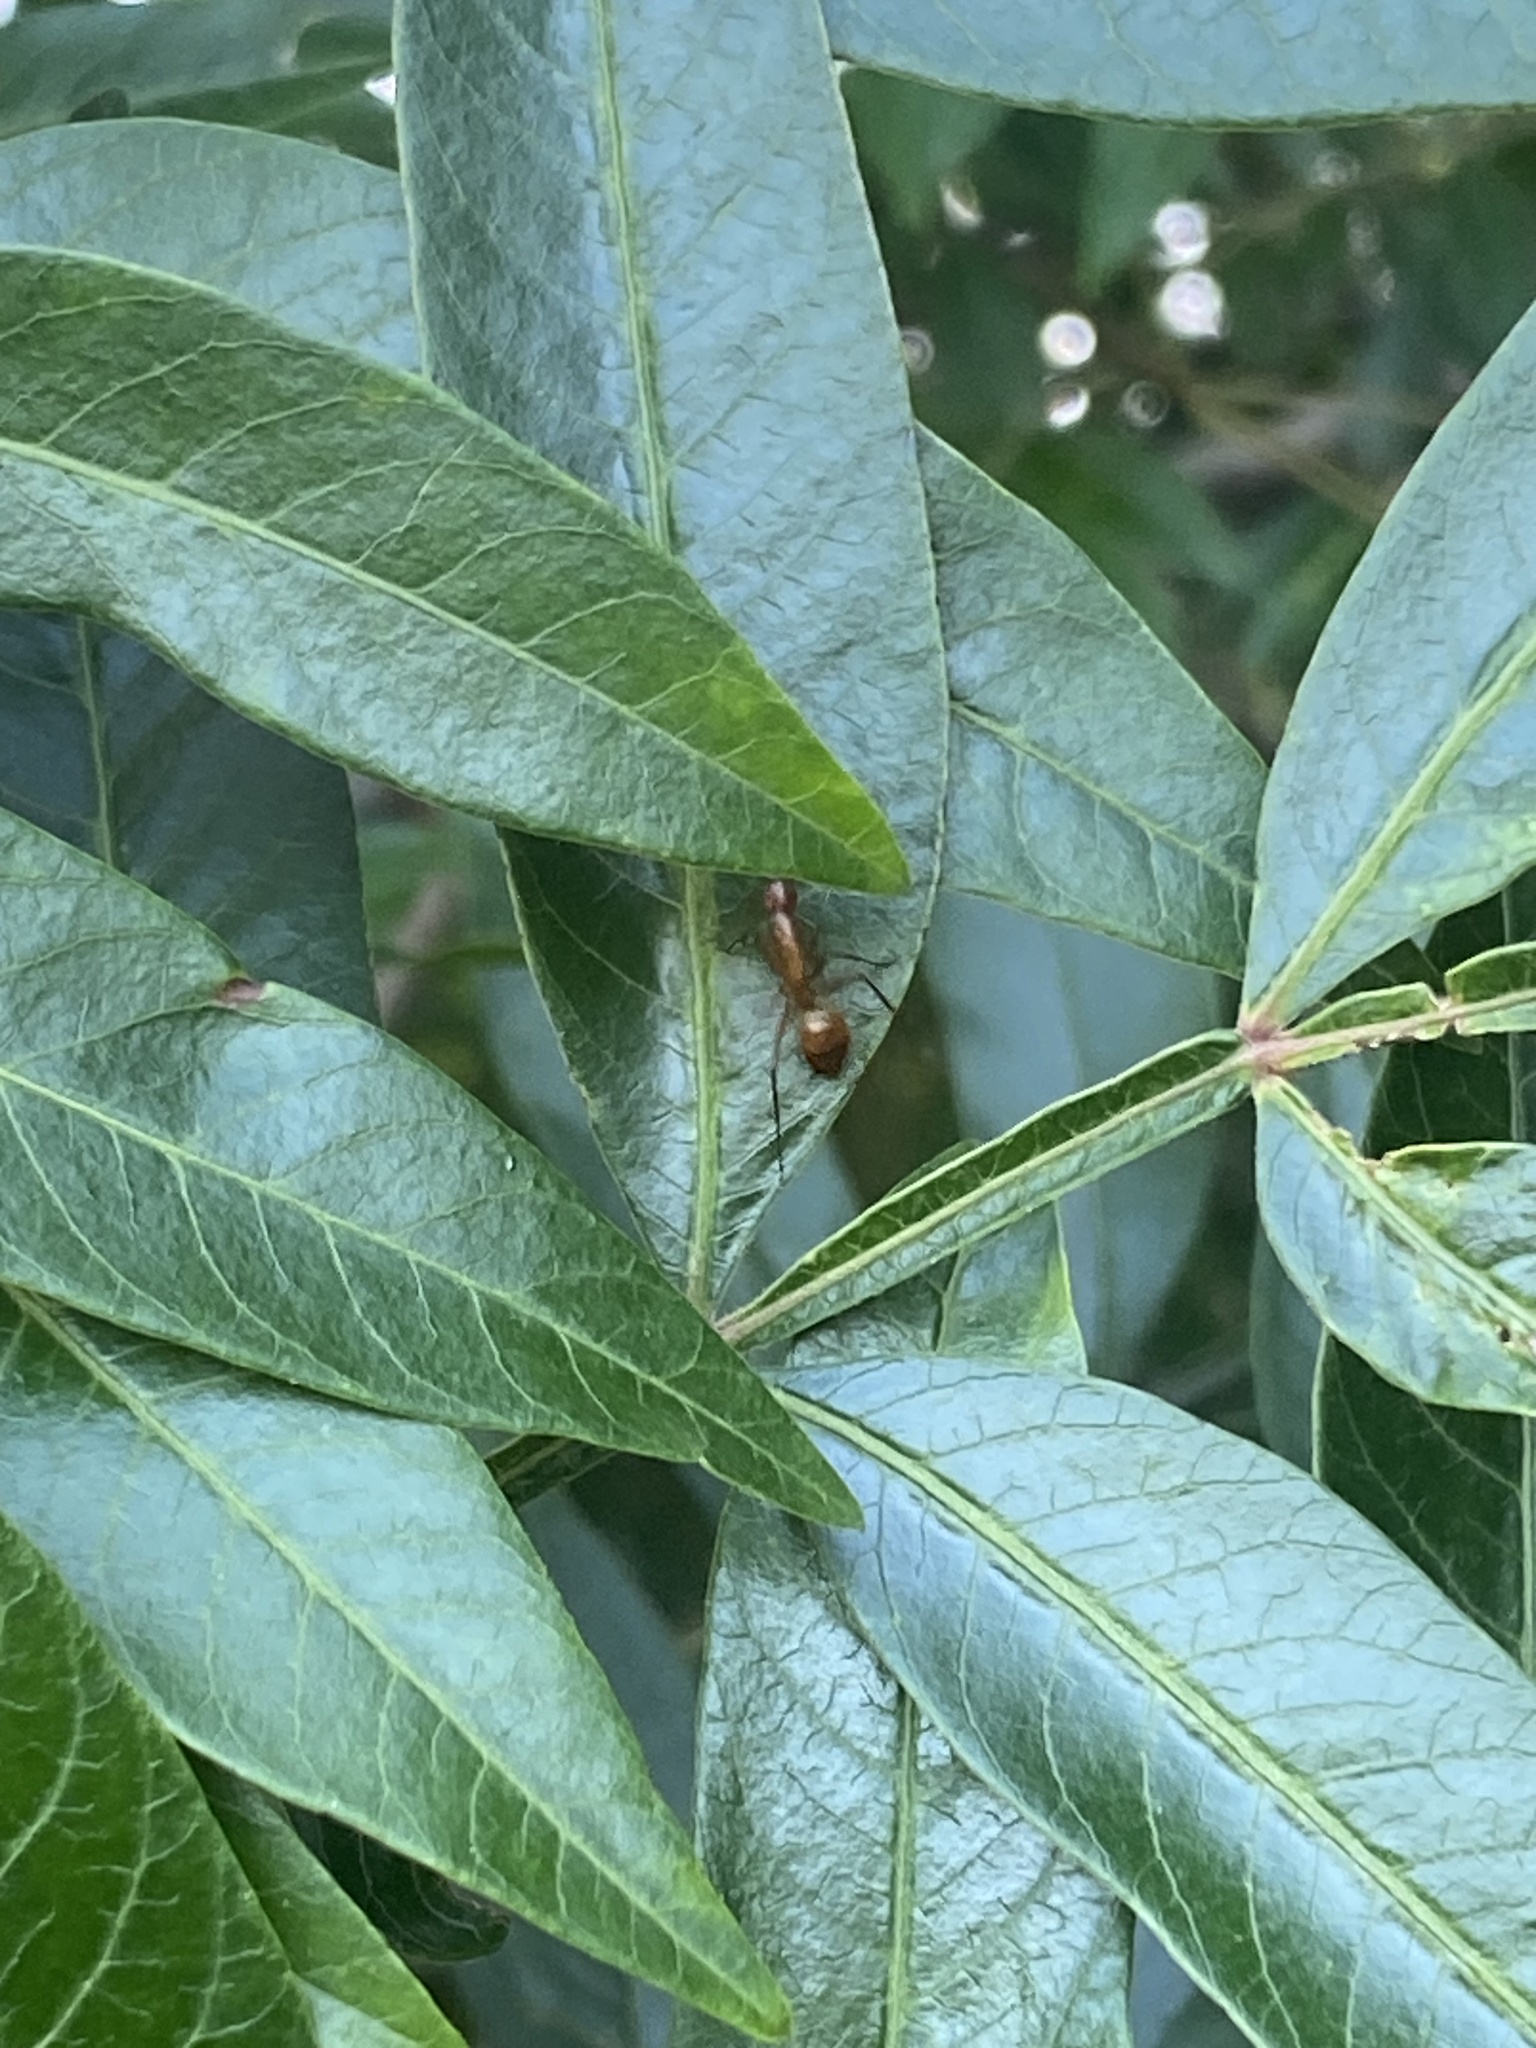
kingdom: Animalia
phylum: Arthropoda
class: Insecta
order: Hymenoptera
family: Formicidae
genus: Camponotus
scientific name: Camponotus castaneus
